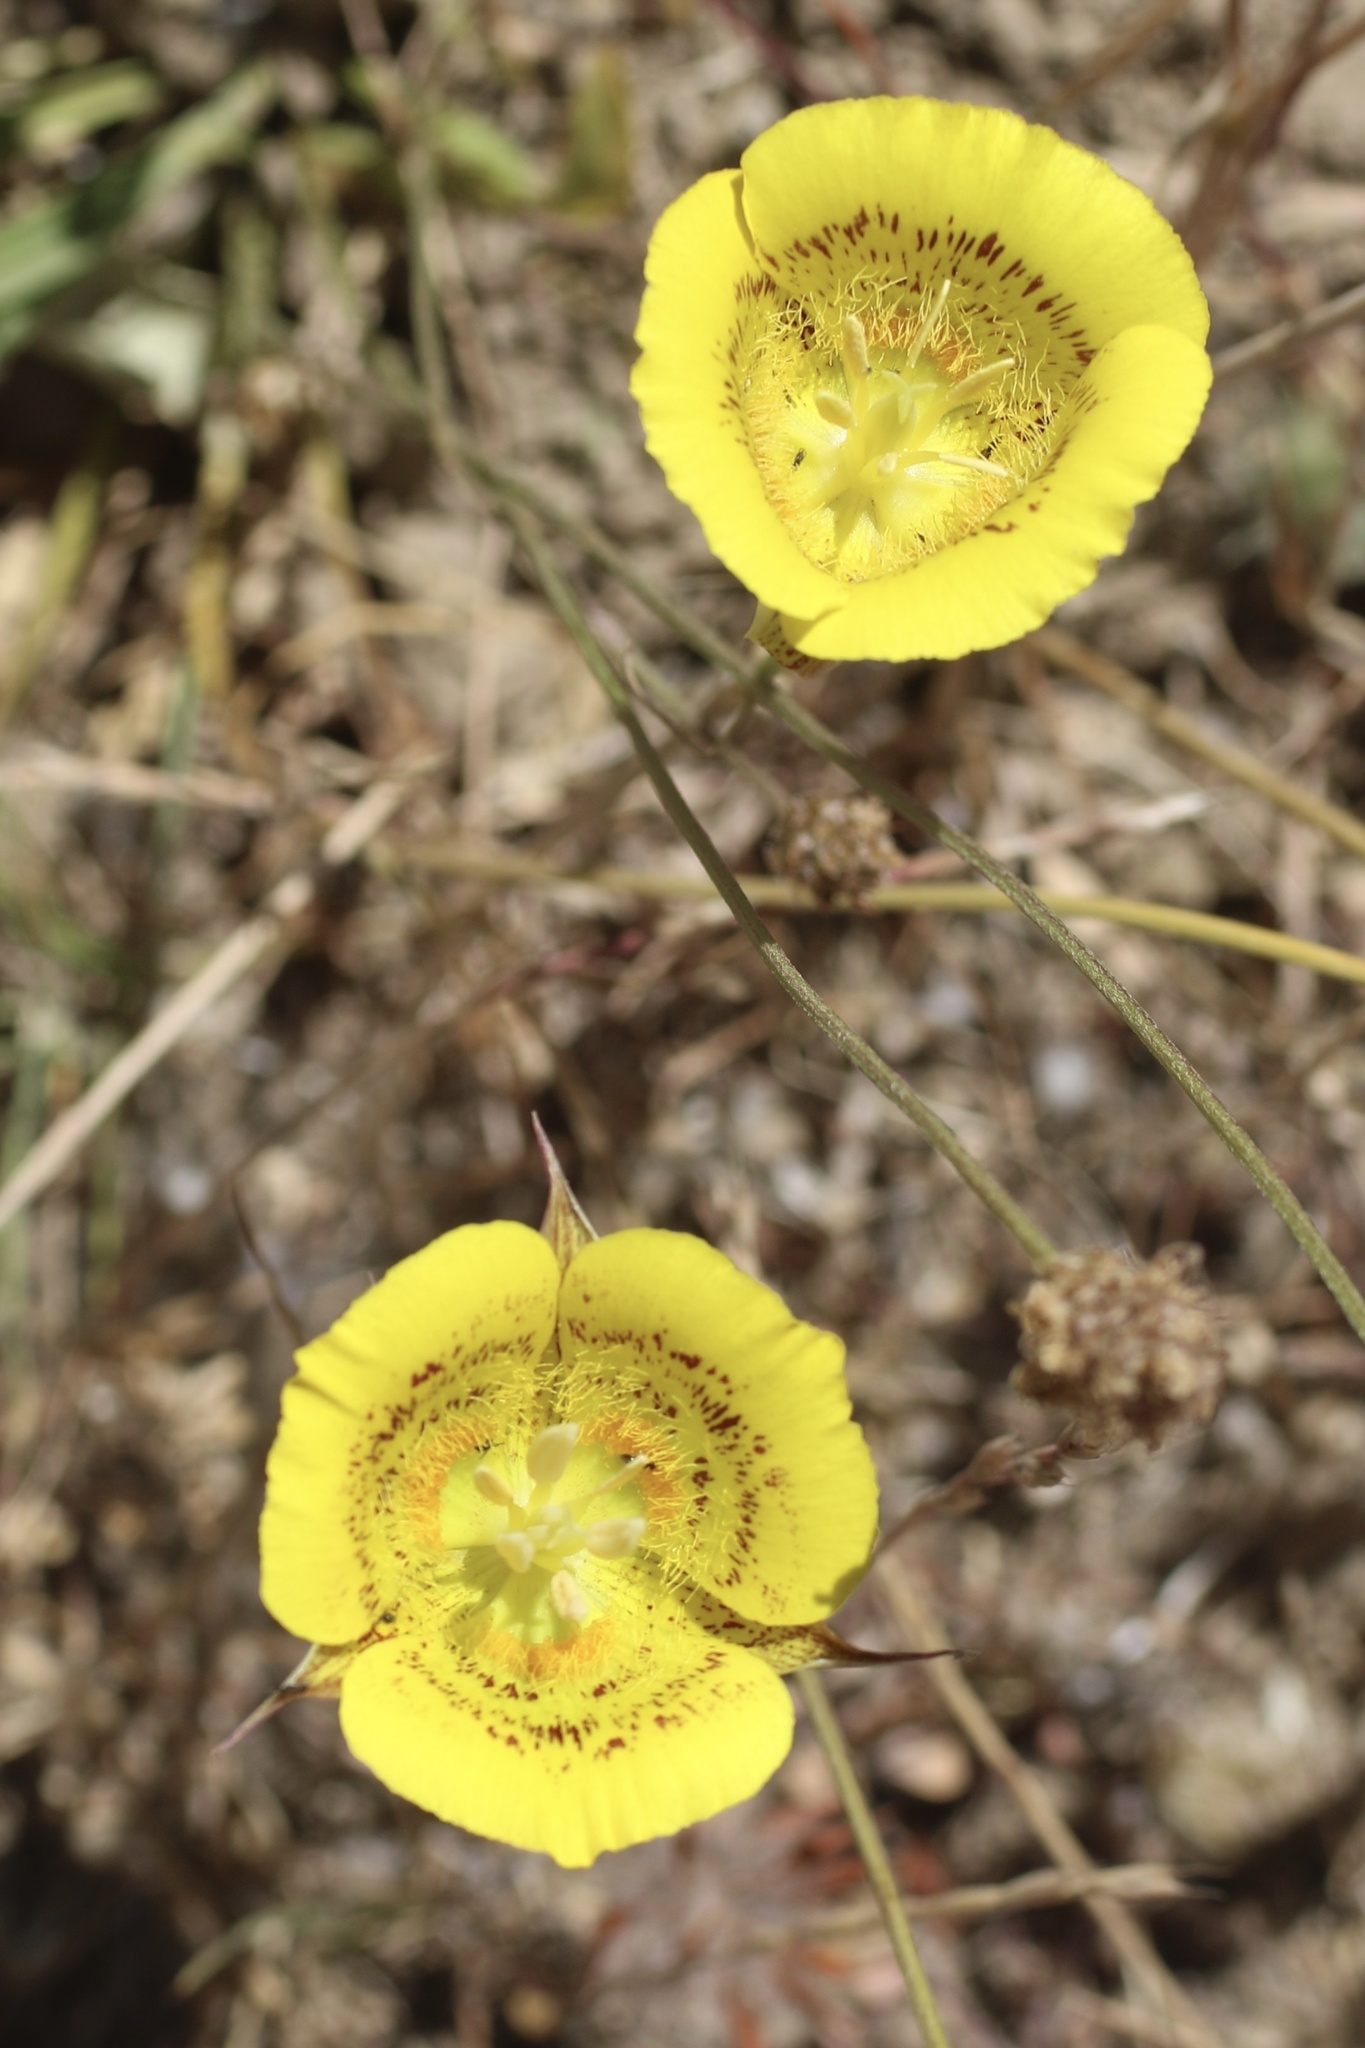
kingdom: Plantae
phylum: Tracheophyta
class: Liliopsida
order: Liliales
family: Liliaceae
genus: Calochortus
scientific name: Calochortus luteus
